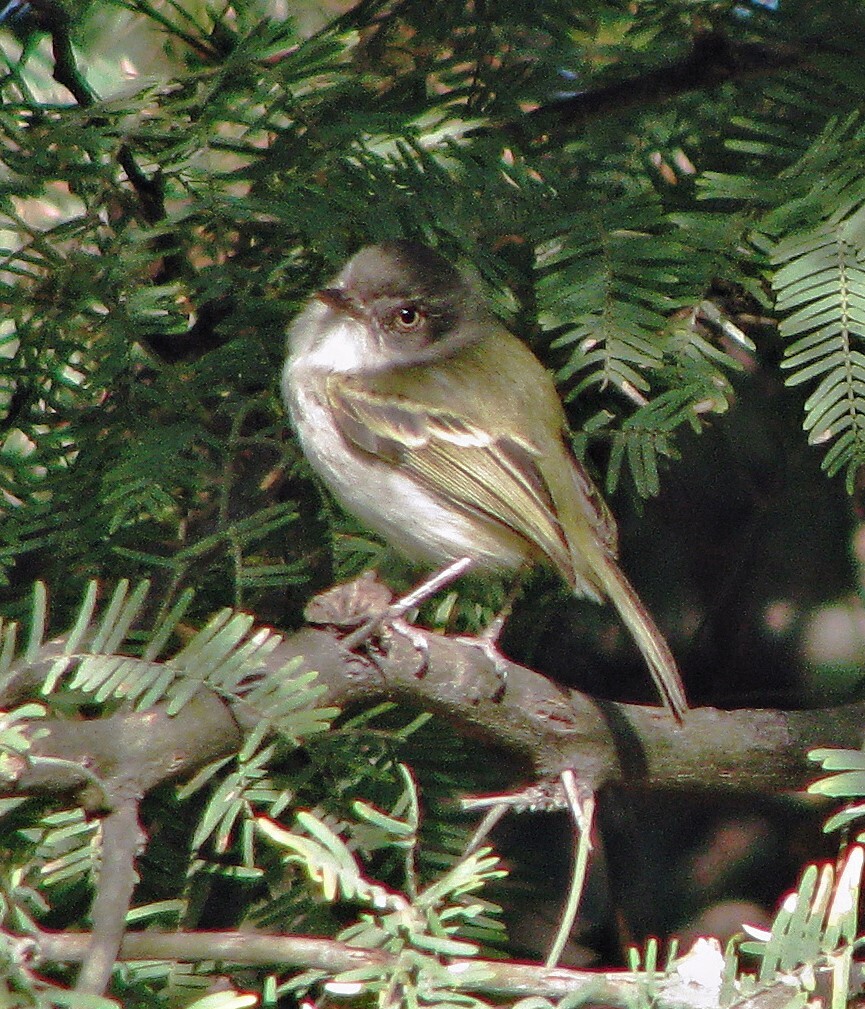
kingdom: Animalia
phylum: Chordata
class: Aves
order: Passeriformes
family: Tyrannidae
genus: Hemitriccus
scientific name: Hemitriccus margaritaceiventer
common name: Pearly-vented tody-tyrant
